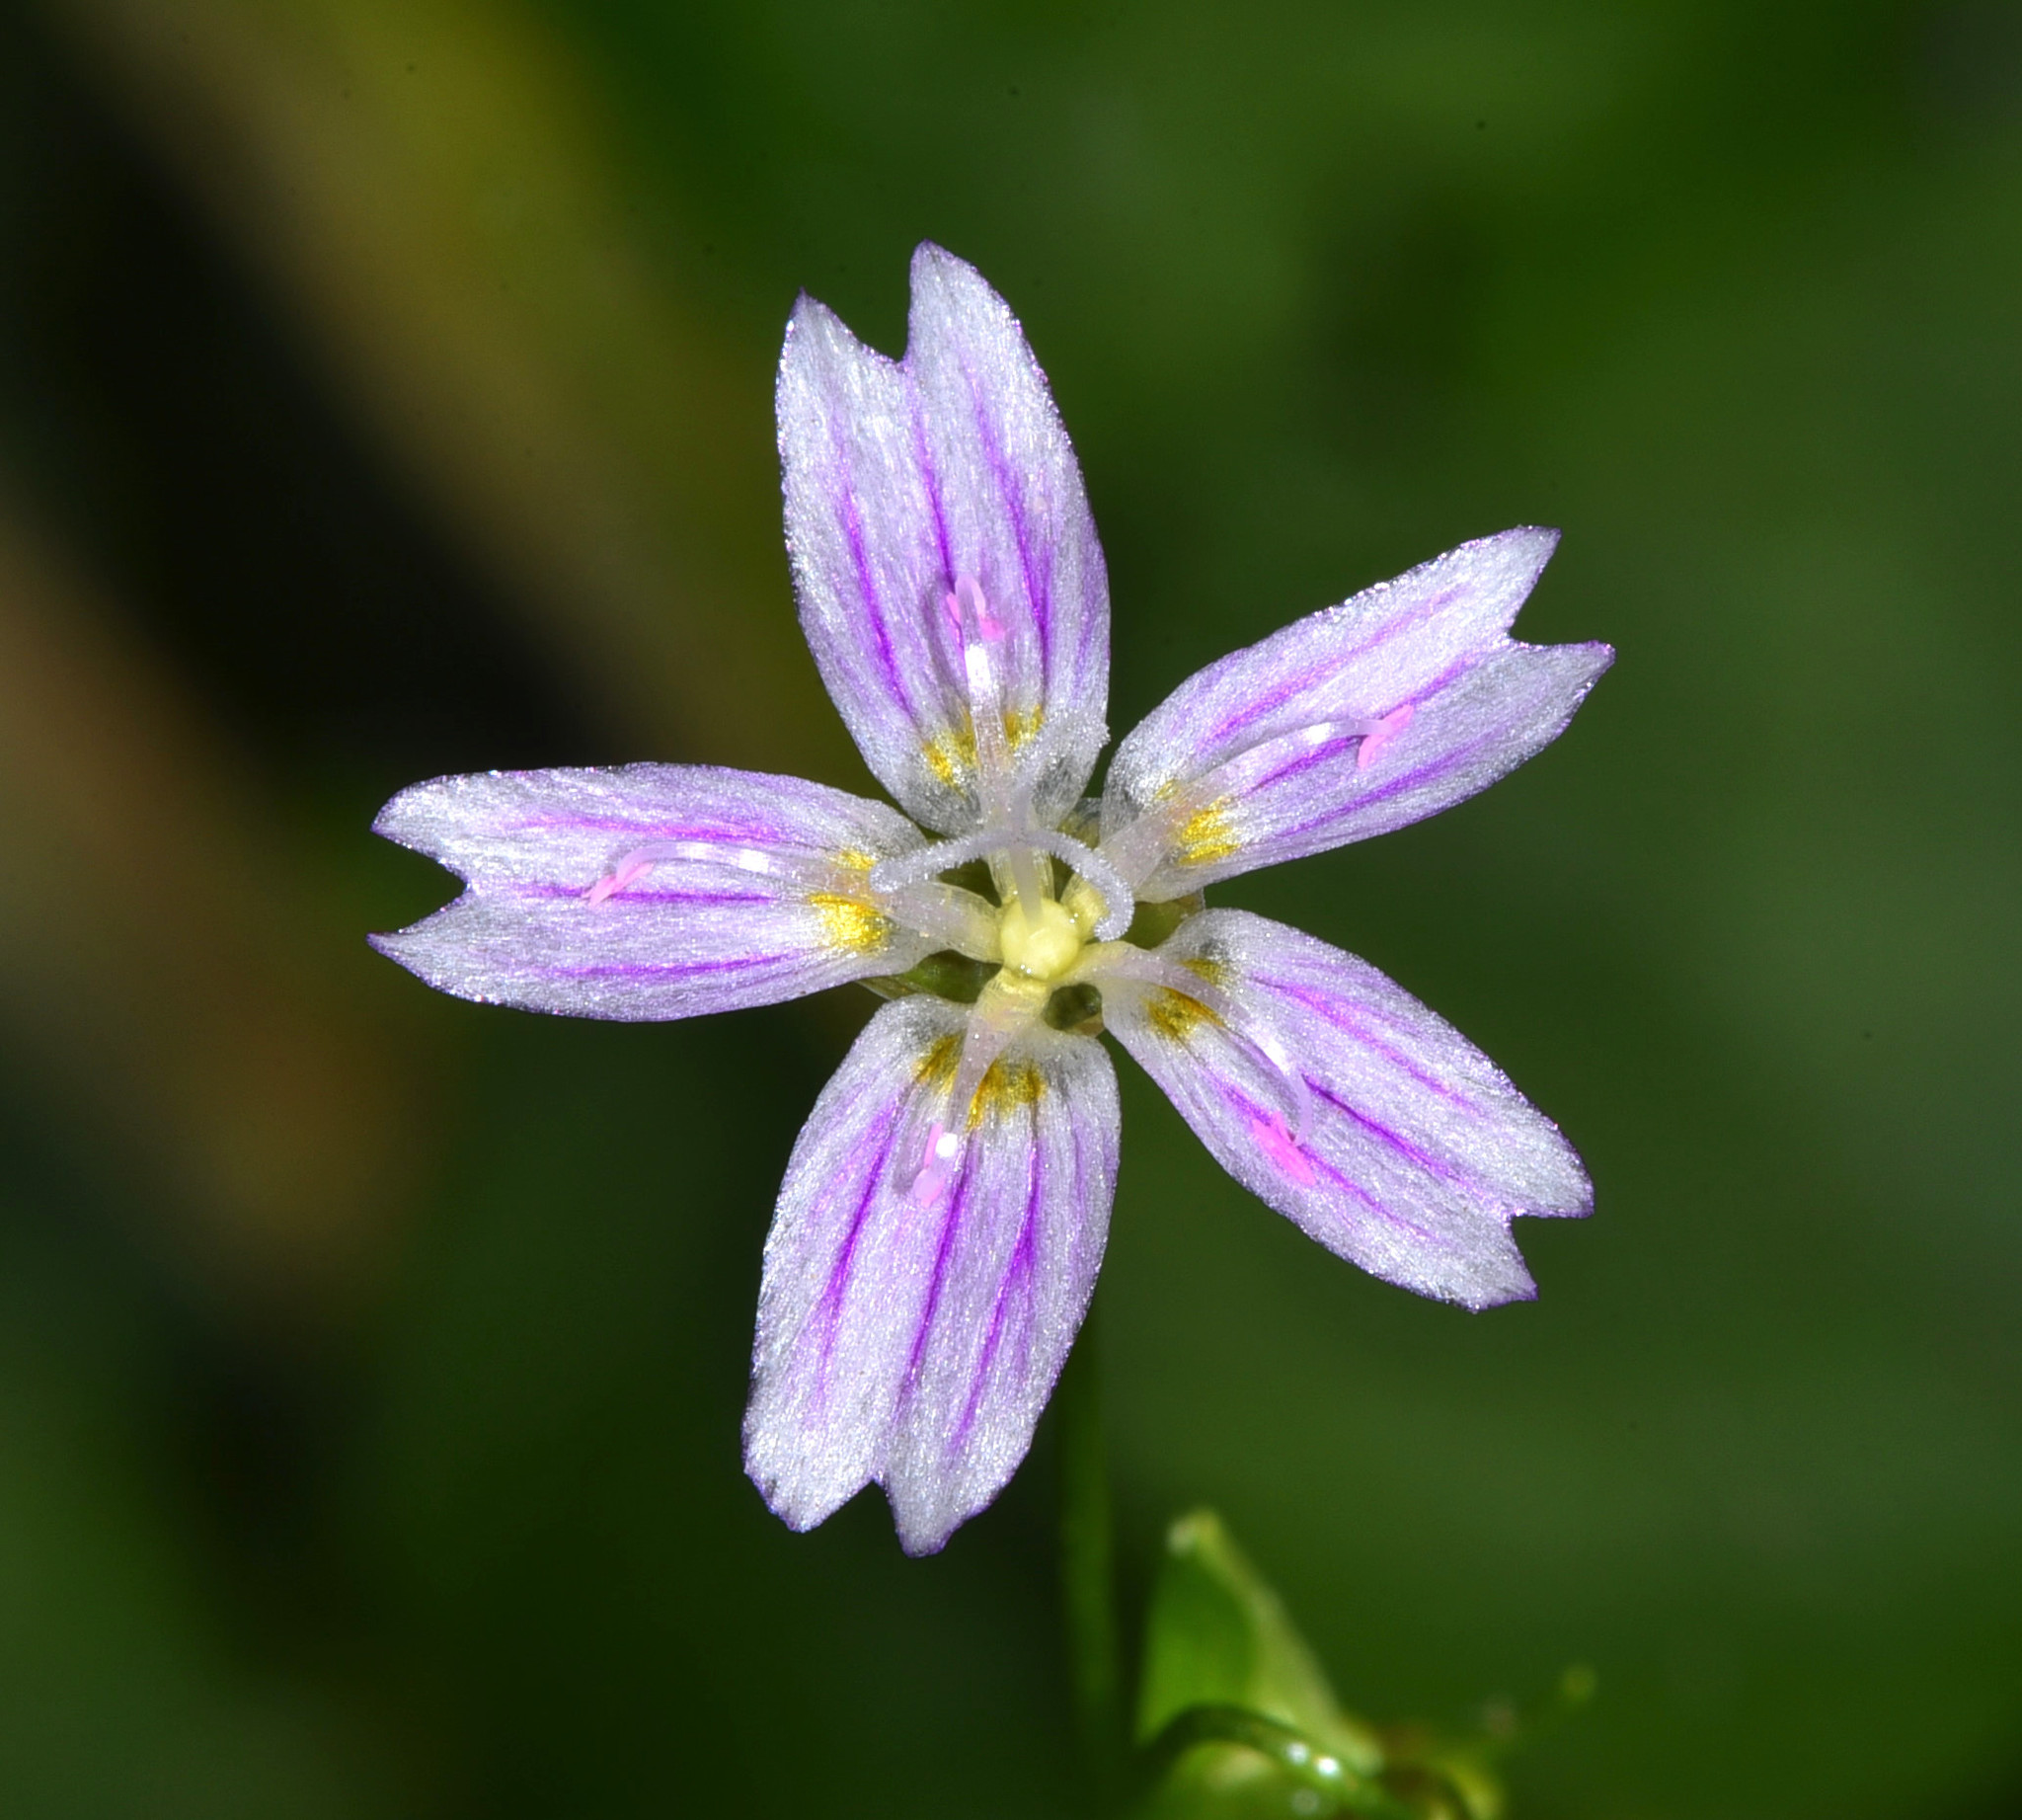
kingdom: Plantae
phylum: Tracheophyta
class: Magnoliopsida
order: Caryophyllales
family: Montiaceae
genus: Claytonia
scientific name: Claytonia sibirica
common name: Pink purslane
